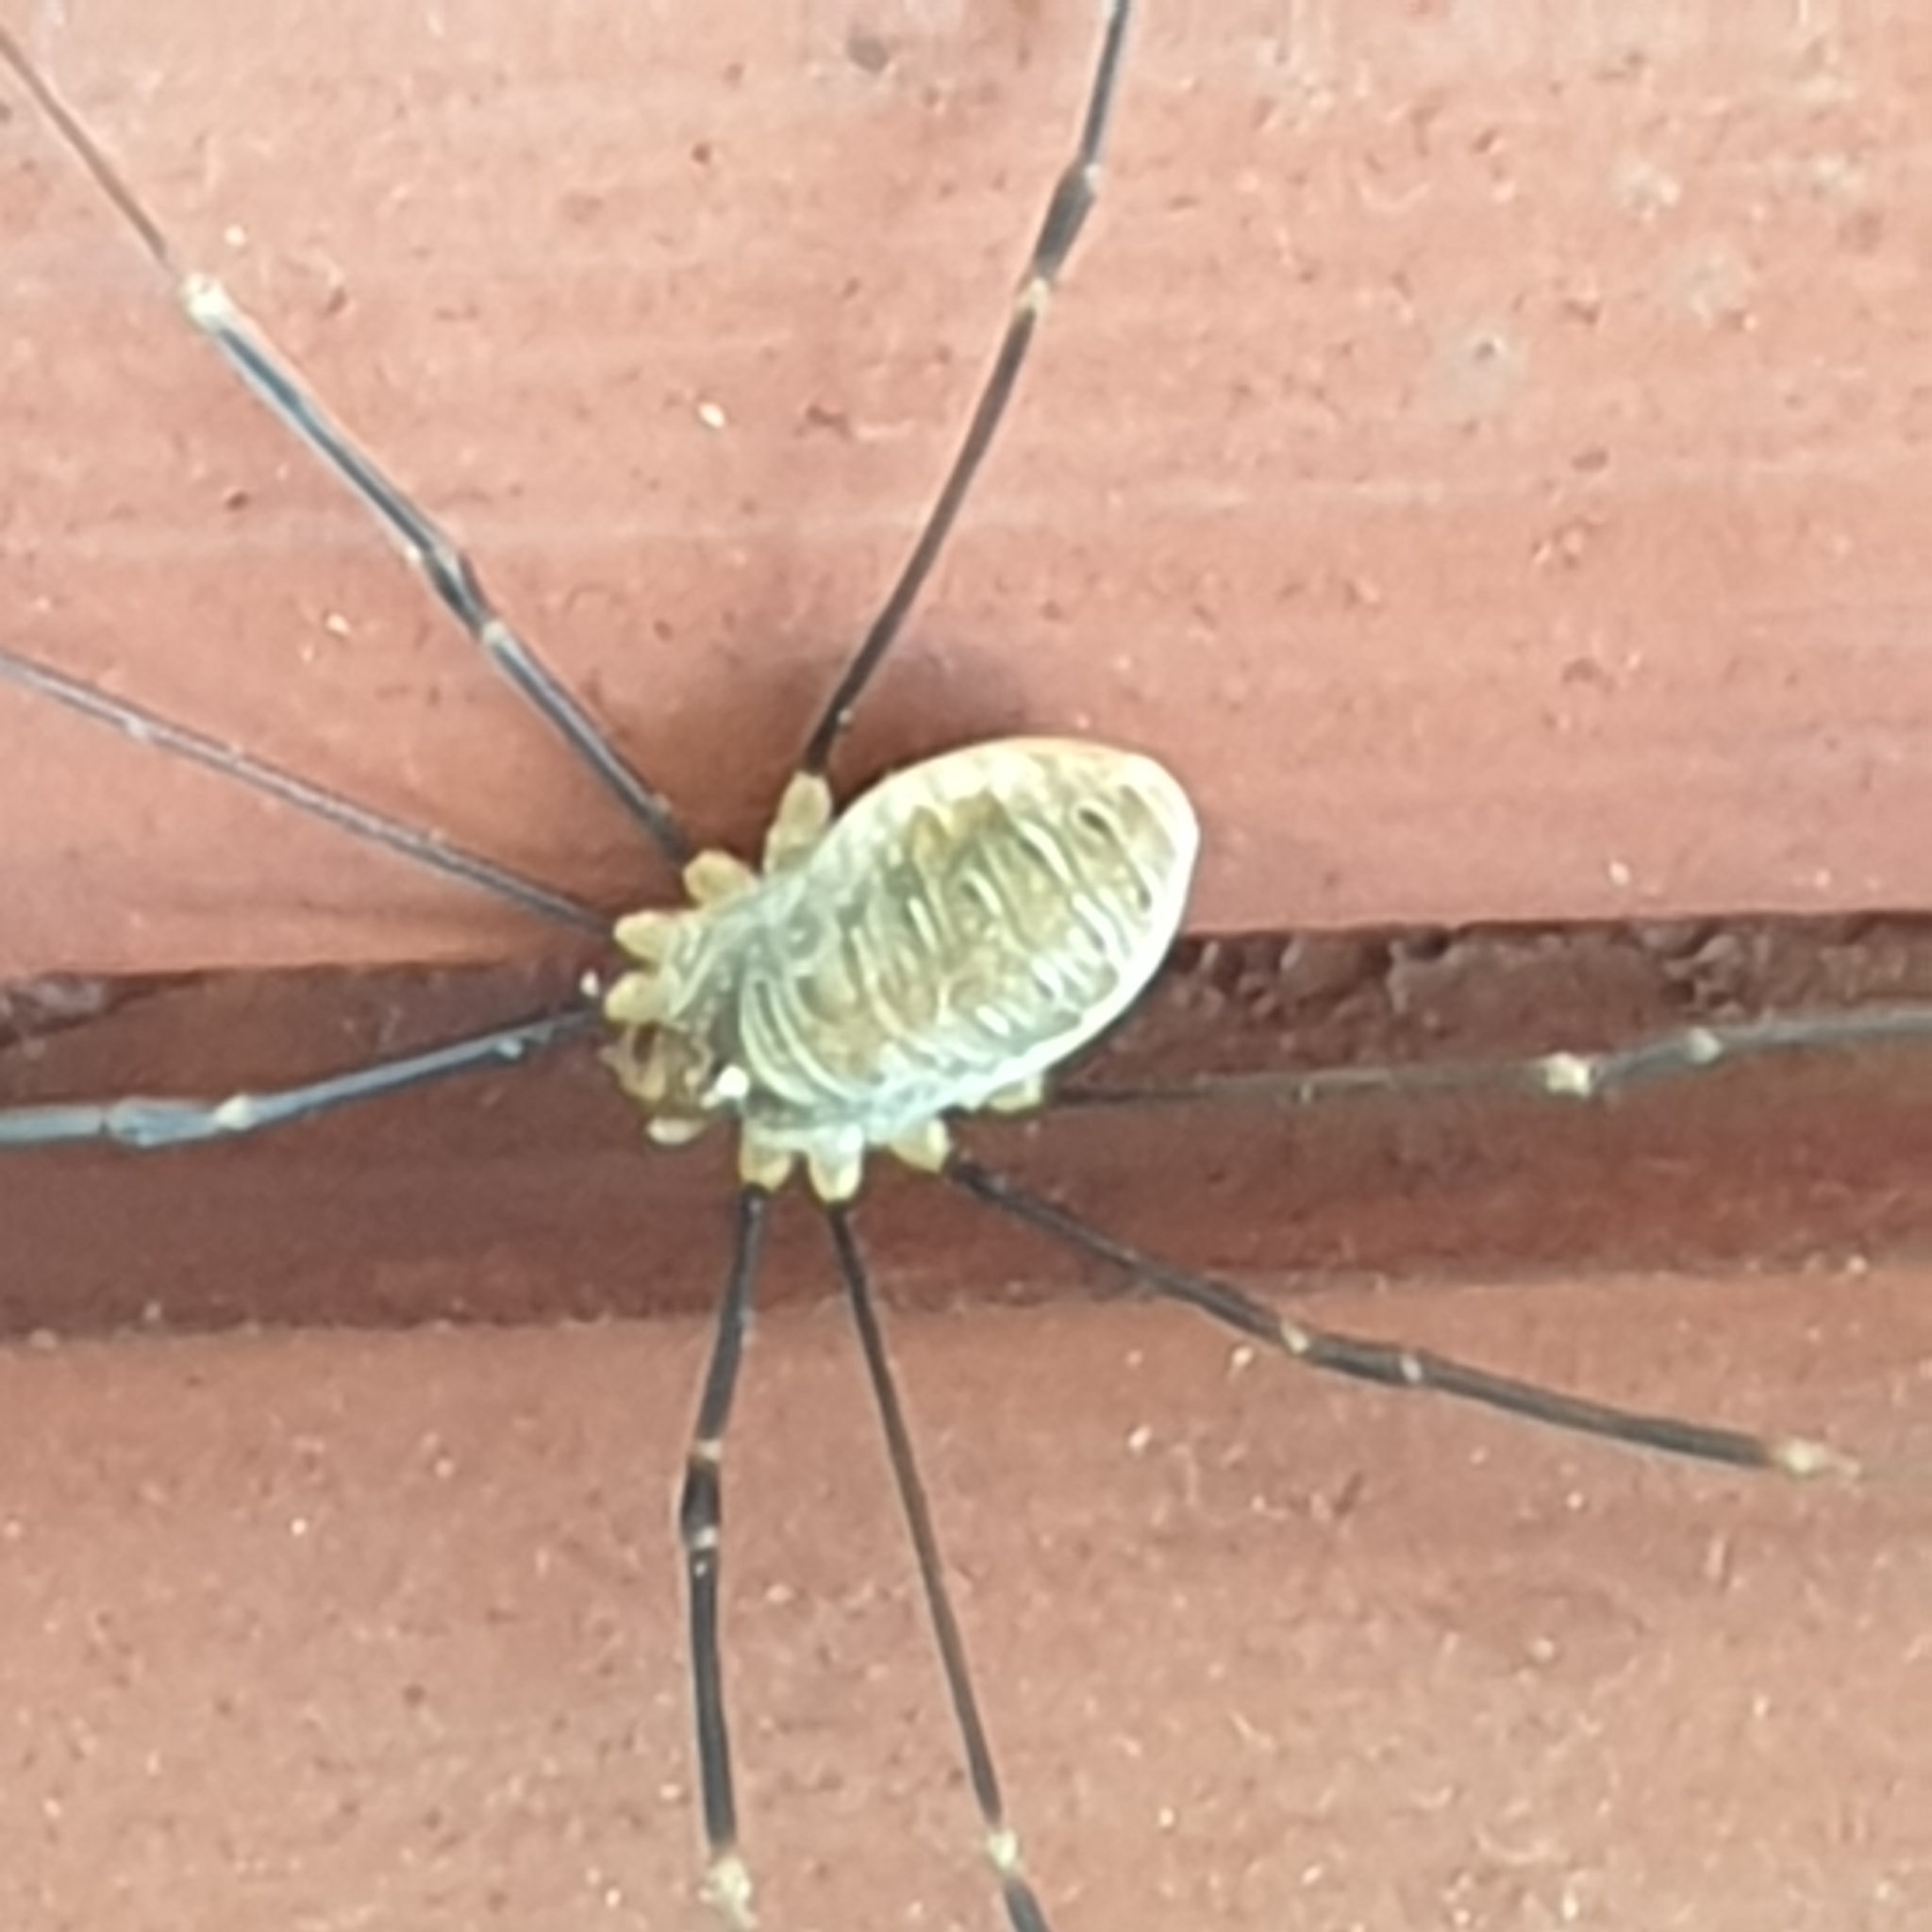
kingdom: Animalia
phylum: Arthropoda
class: Arachnida
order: Opiliones
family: Phalangiidae
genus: Opilio
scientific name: Opilio canestrinii
